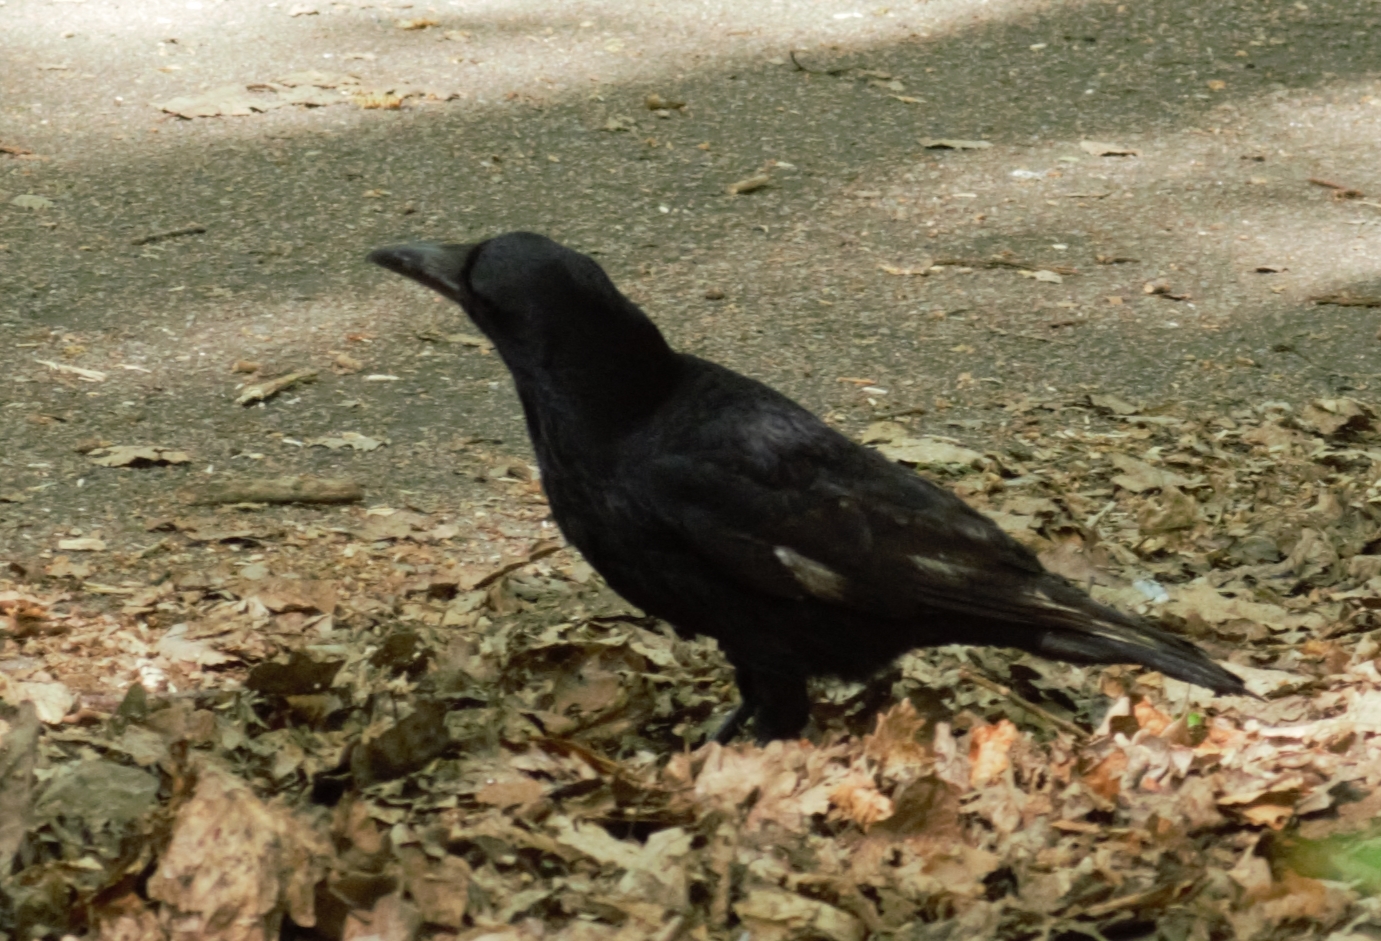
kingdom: Animalia
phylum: Chordata
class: Aves
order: Passeriformes
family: Corvidae
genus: Corvus
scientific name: Corvus corone
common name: Carrion crow
